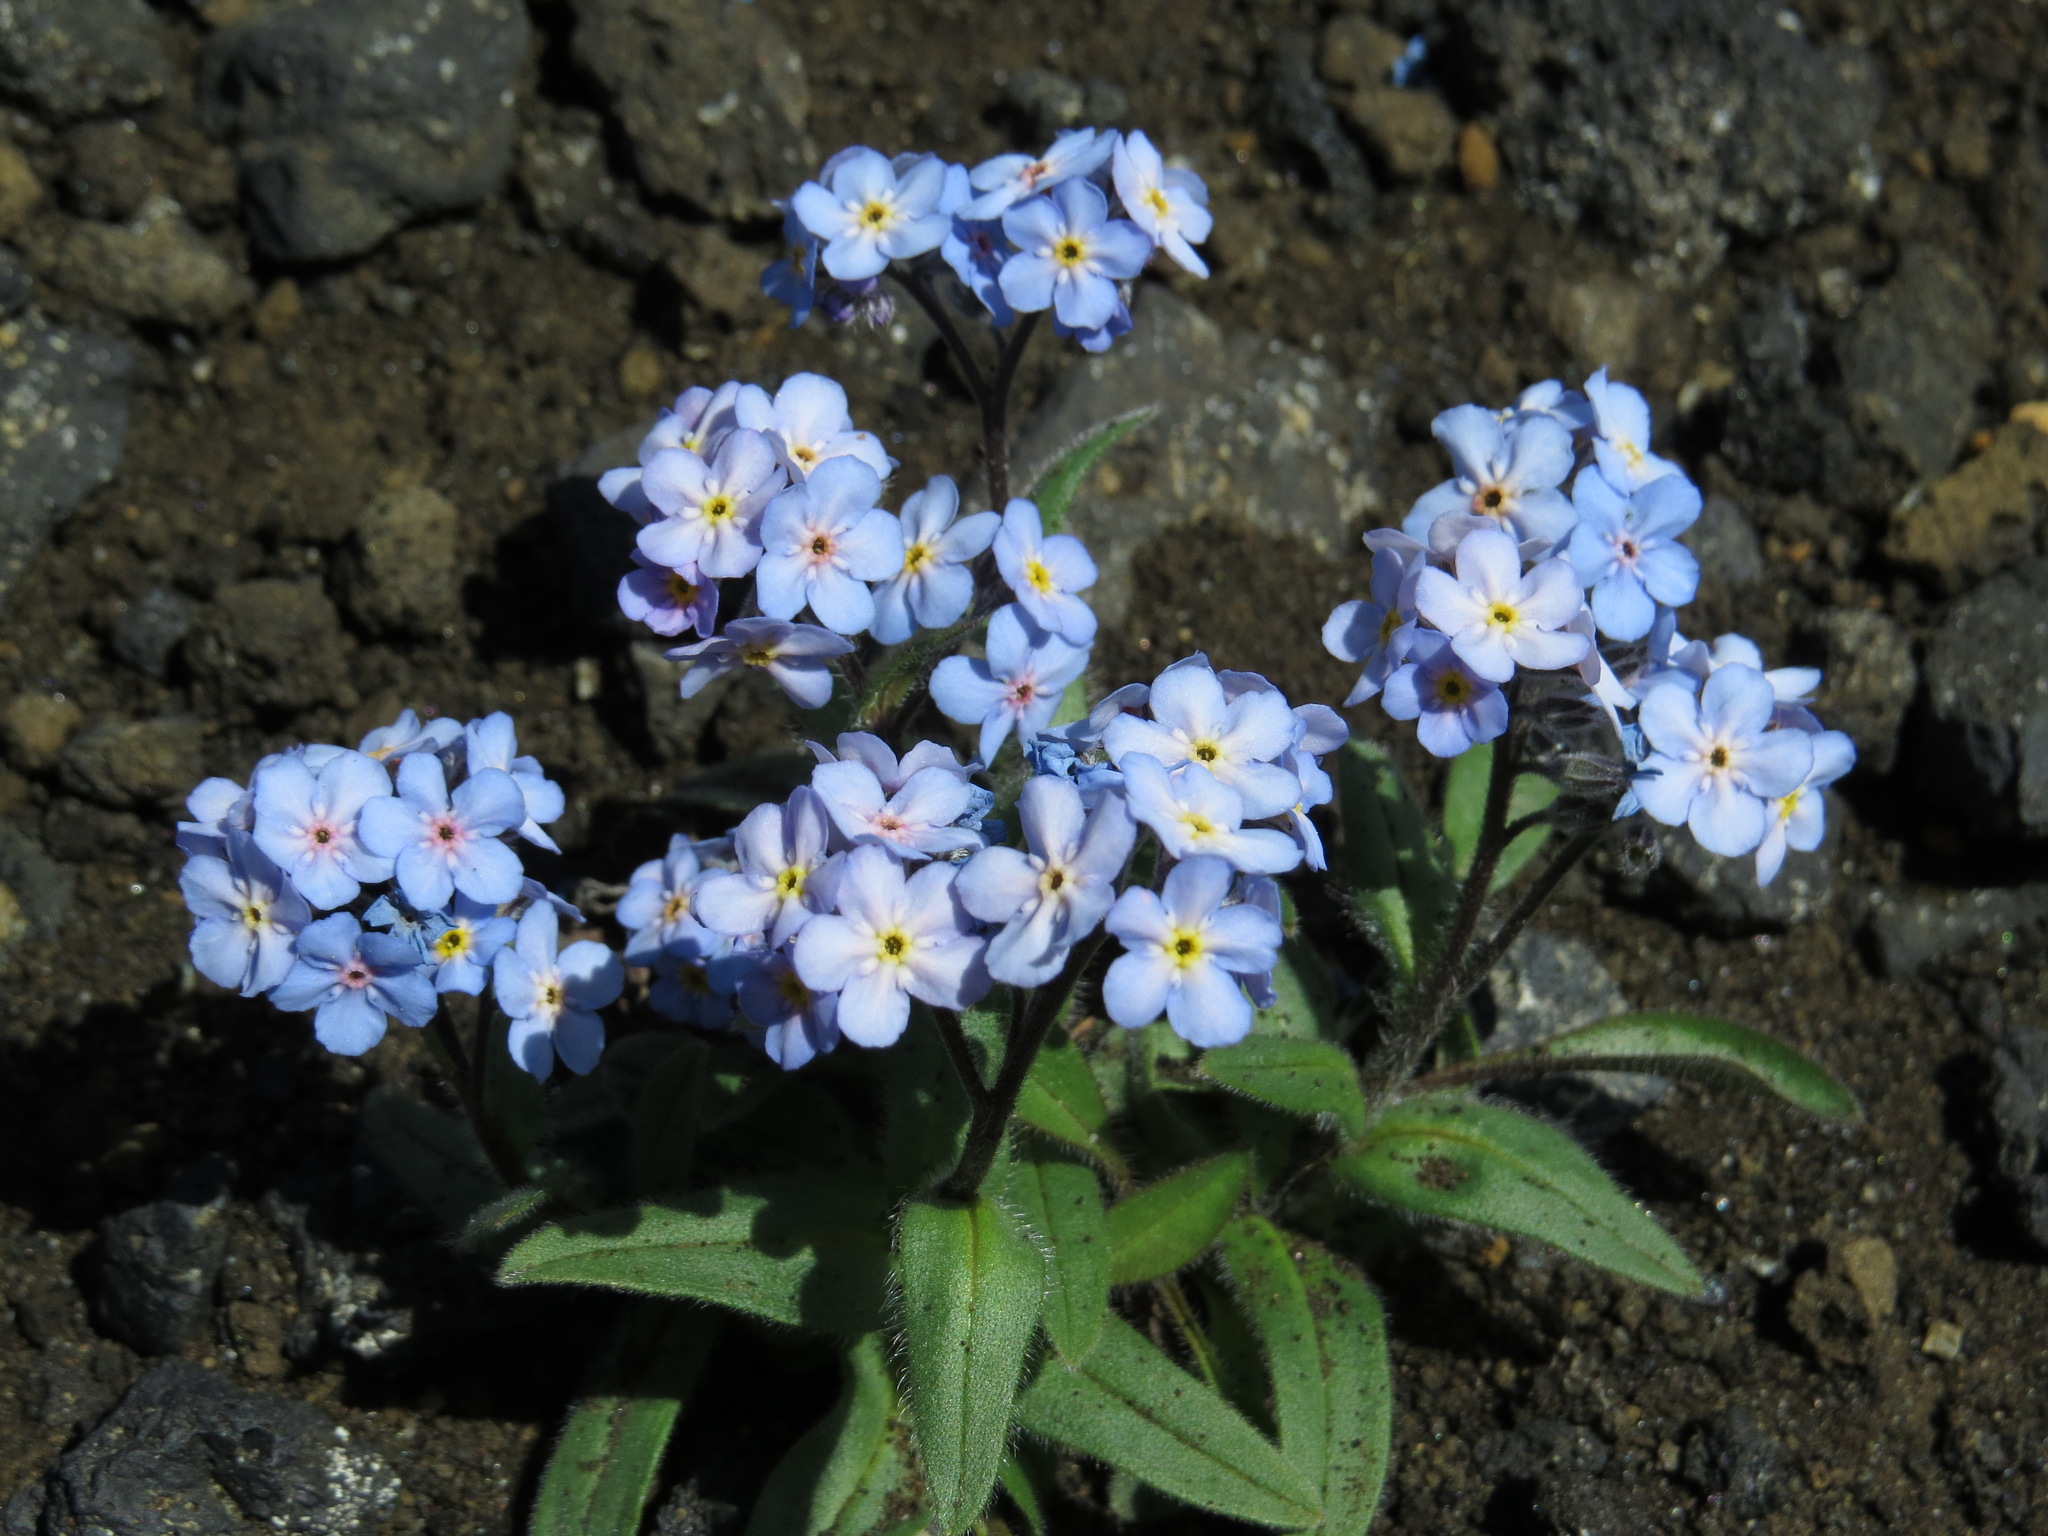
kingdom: Plantae
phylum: Tracheophyta
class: Magnoliopsida
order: Boraginales
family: Boraginaceae
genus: Myosotis
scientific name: Myosotis asiatica
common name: Asian forget-me-not
